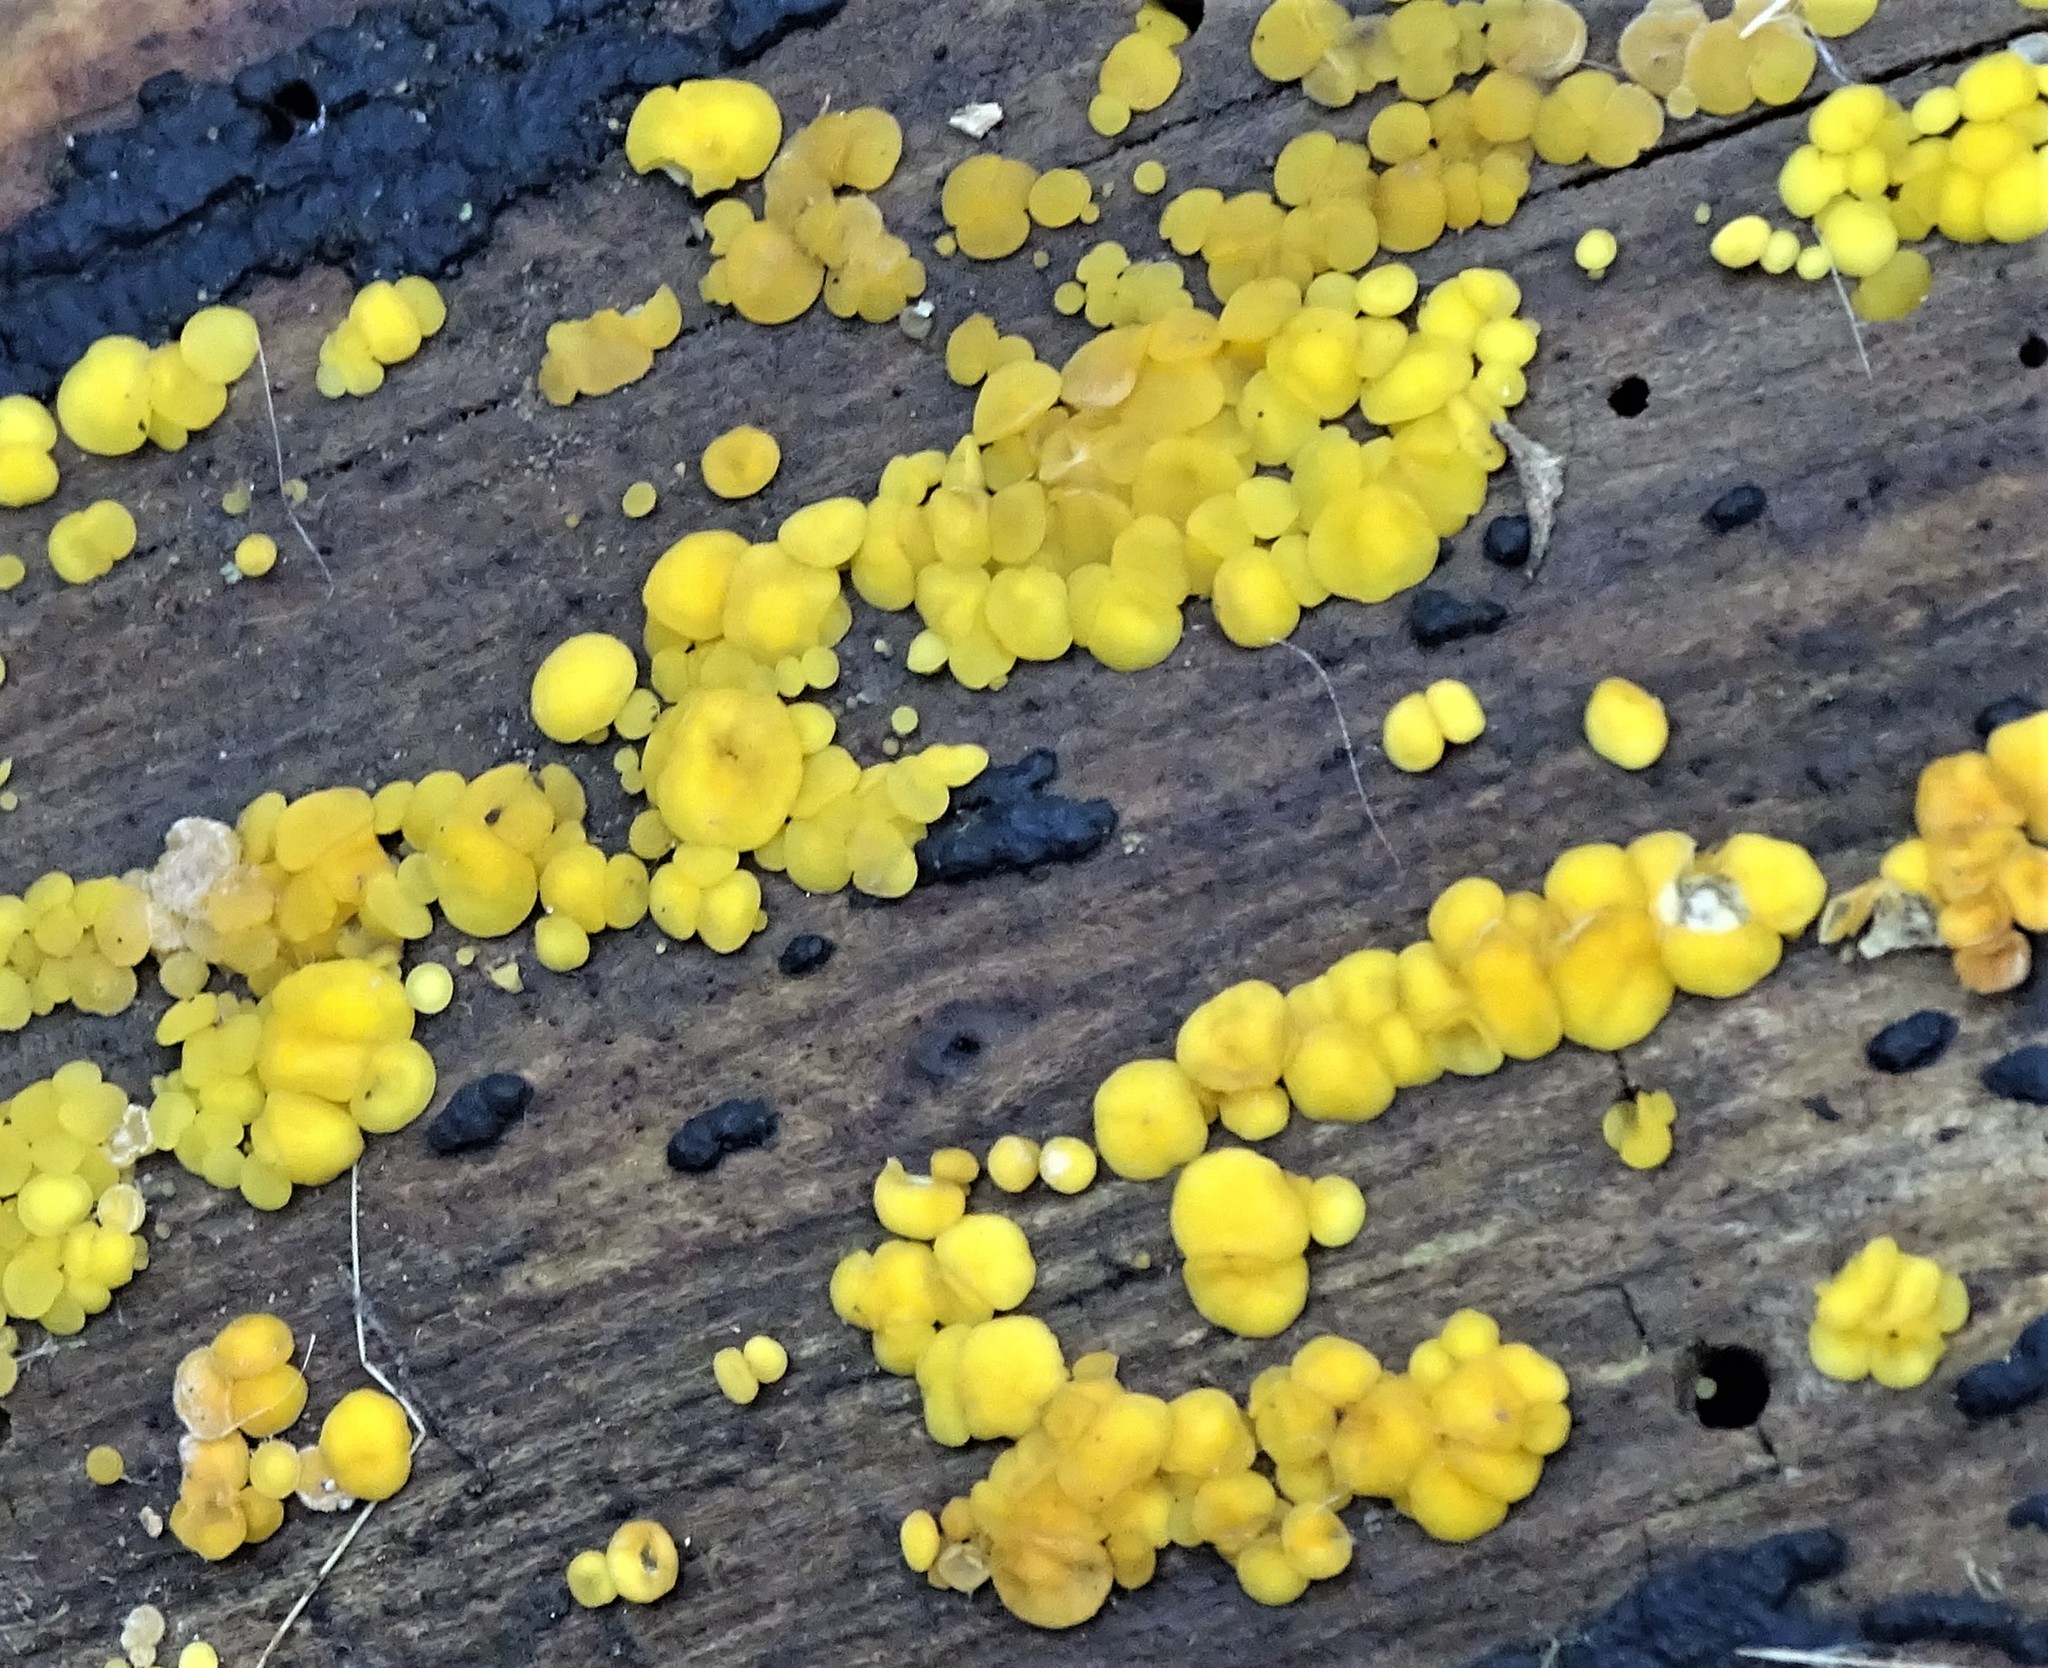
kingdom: Fungi
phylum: Ascomycota
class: Leotiomycetes
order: Helotiales
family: Pezizellaceae
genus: Calycina
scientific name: Calycina citrina
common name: Yellow fairy cups
